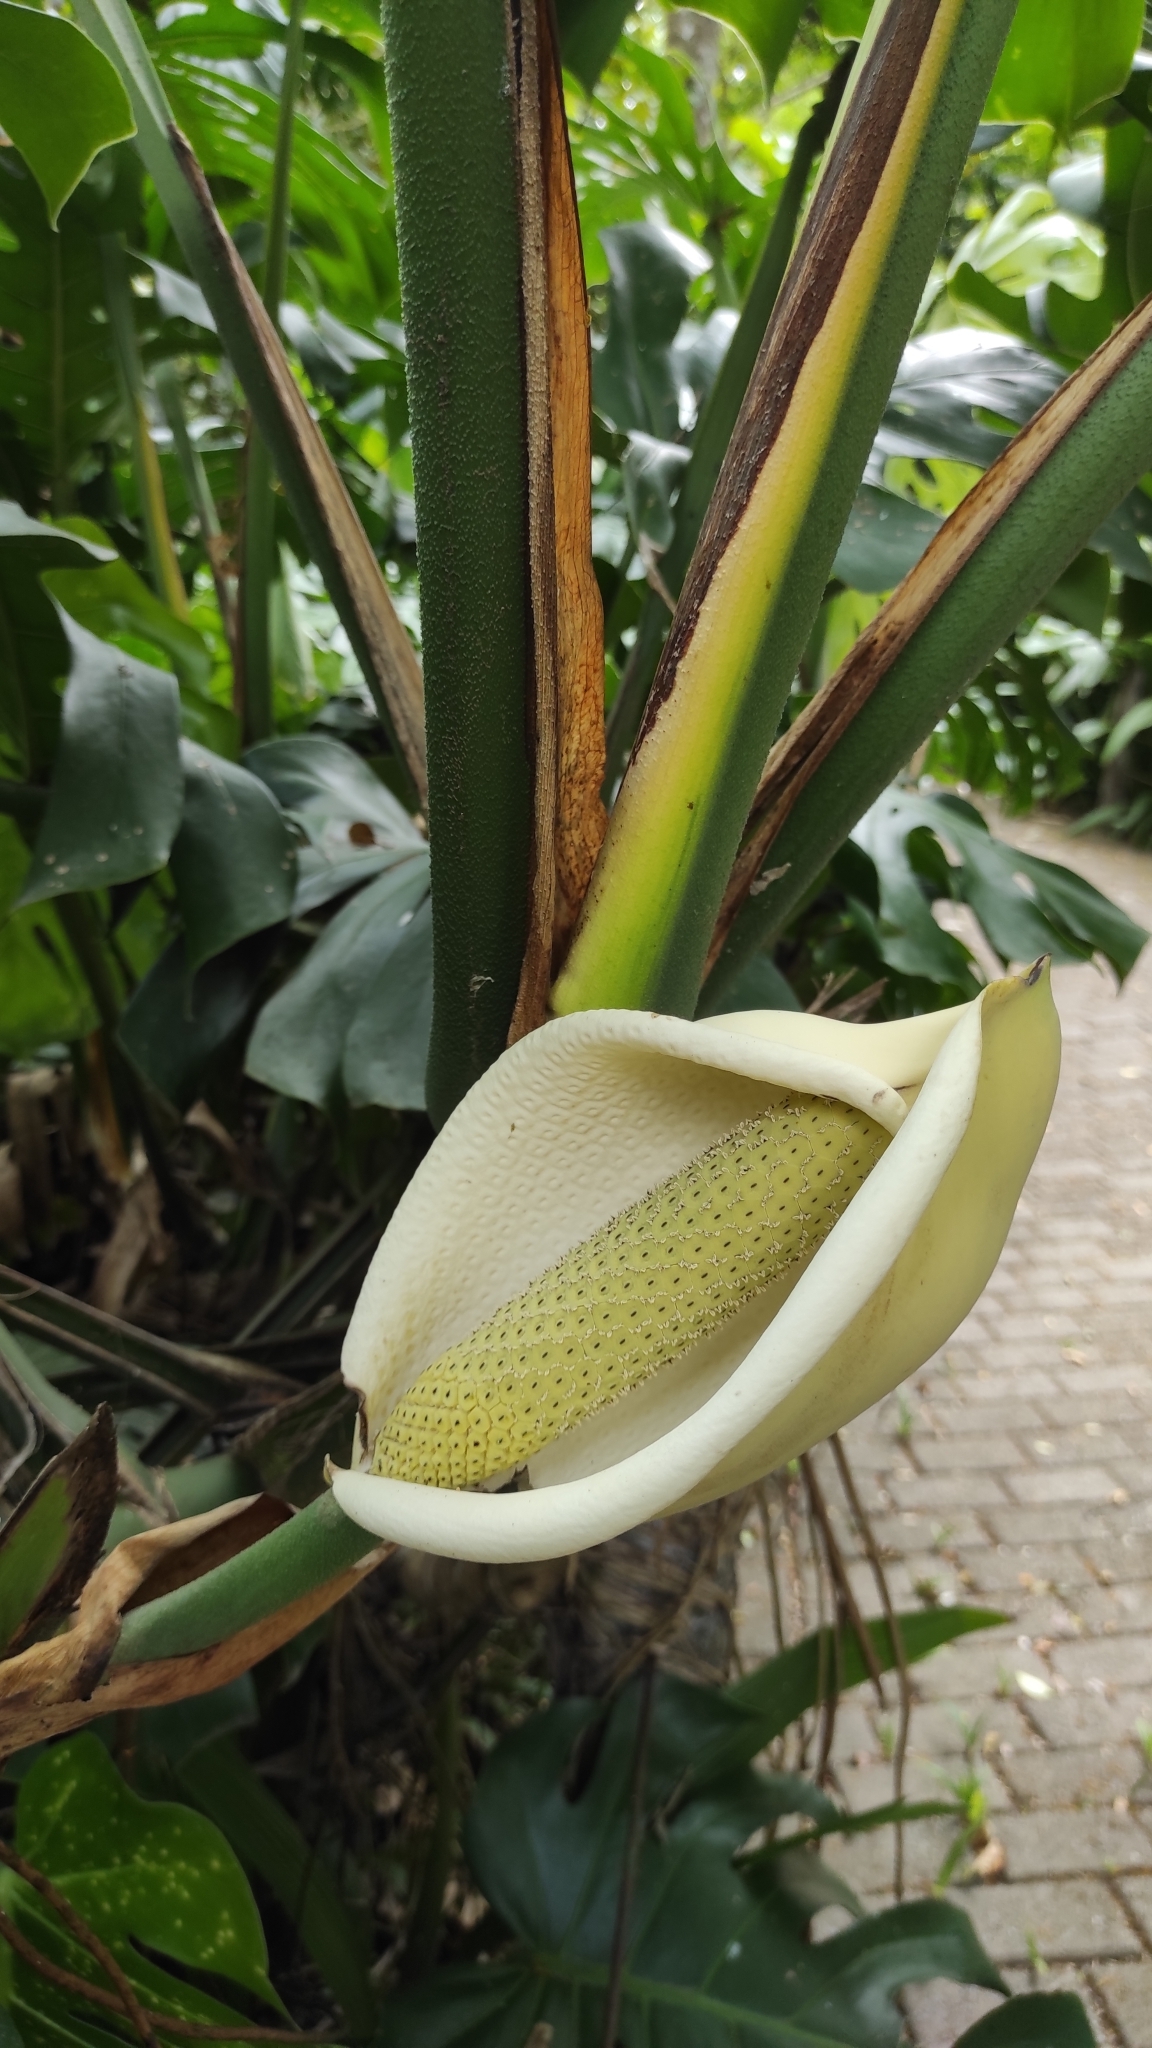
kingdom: Plantae
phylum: Tracheophyta
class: Liliopsida
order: Alismatales
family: Araceae
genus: Monstera
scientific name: Monstera deliciosa
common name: Cut-leaf-philodendron
